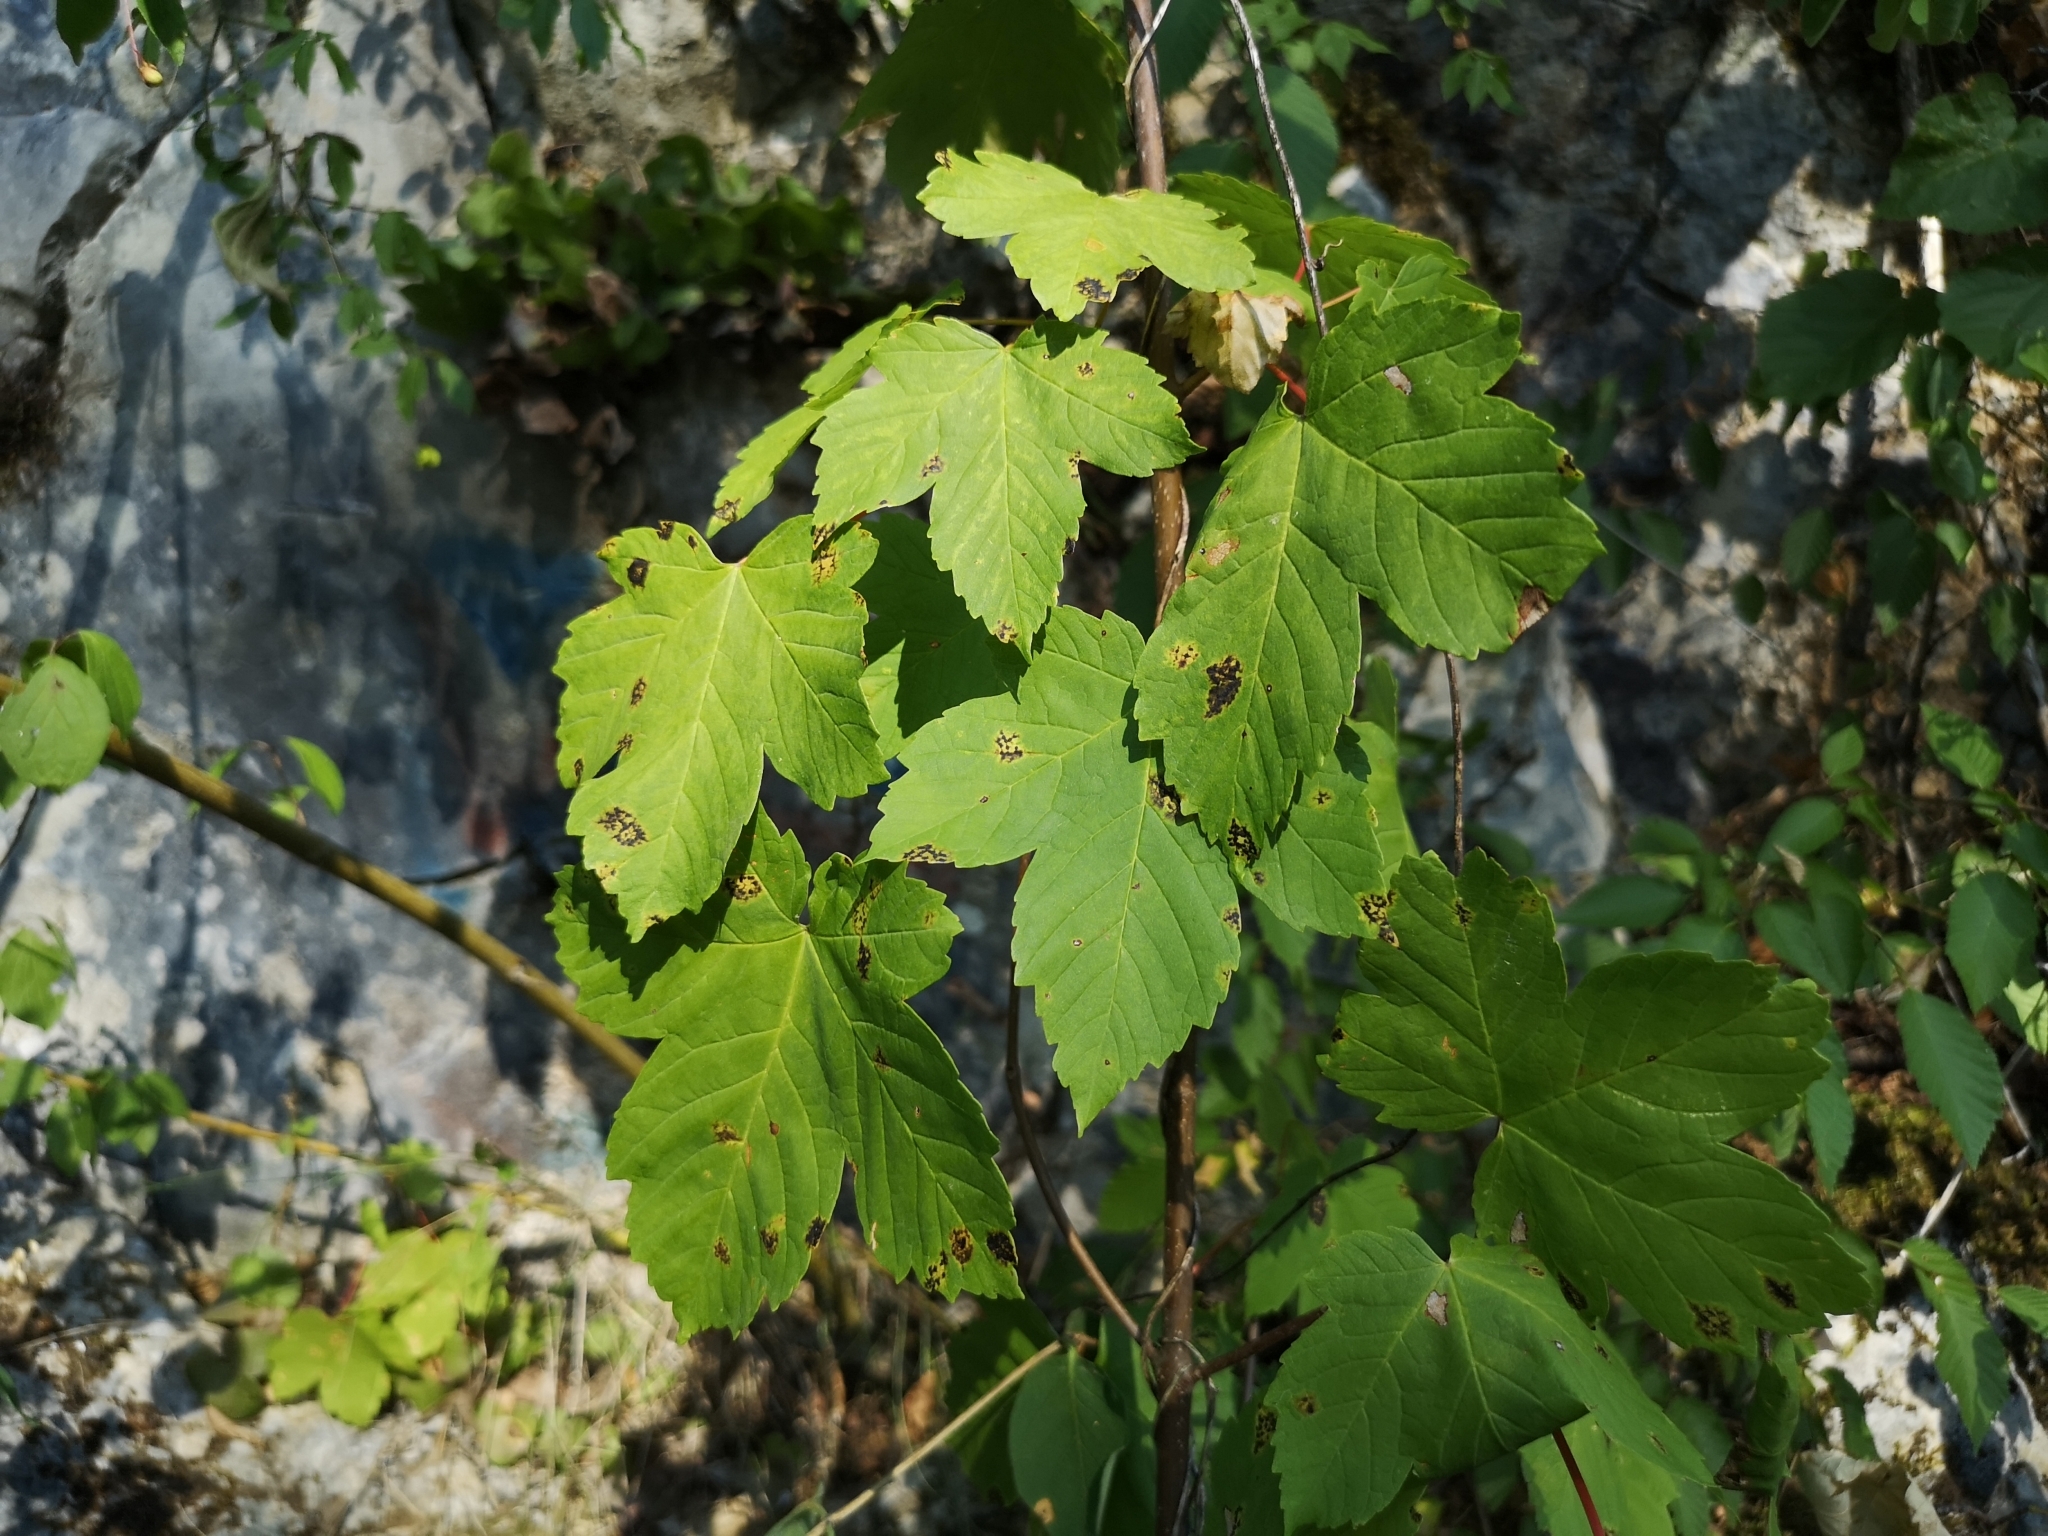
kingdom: Plantae
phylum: Tracheophyta
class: Magnoliopsida
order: Sapindales
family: Sapindaceae
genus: Acer
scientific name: Acer pseudoplatanus
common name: Sycamore
